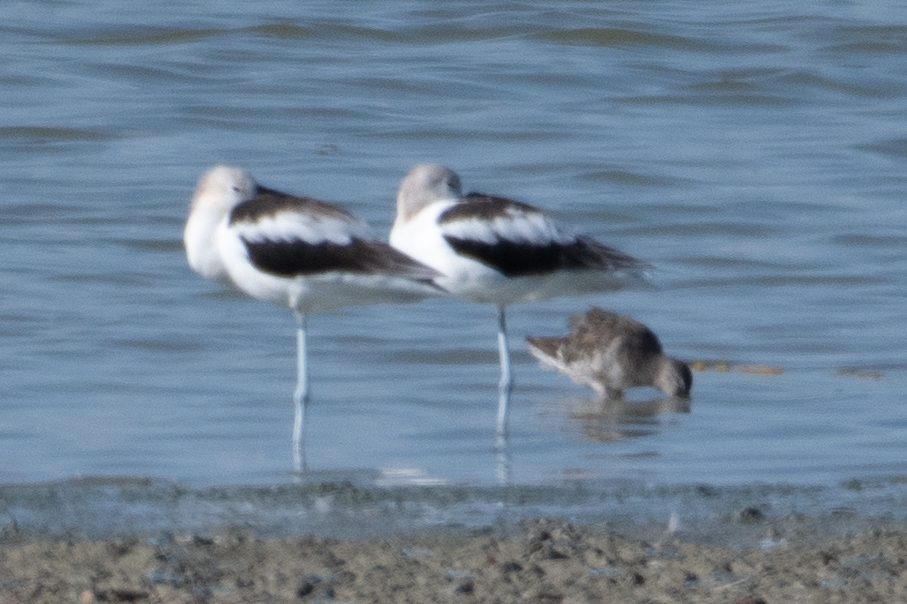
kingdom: Animalia
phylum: Chordata
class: Aves
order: Charadriiformes
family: Recurvirostridae
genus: Recurvirostra
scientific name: Recurvirostra americana
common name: American avocet
